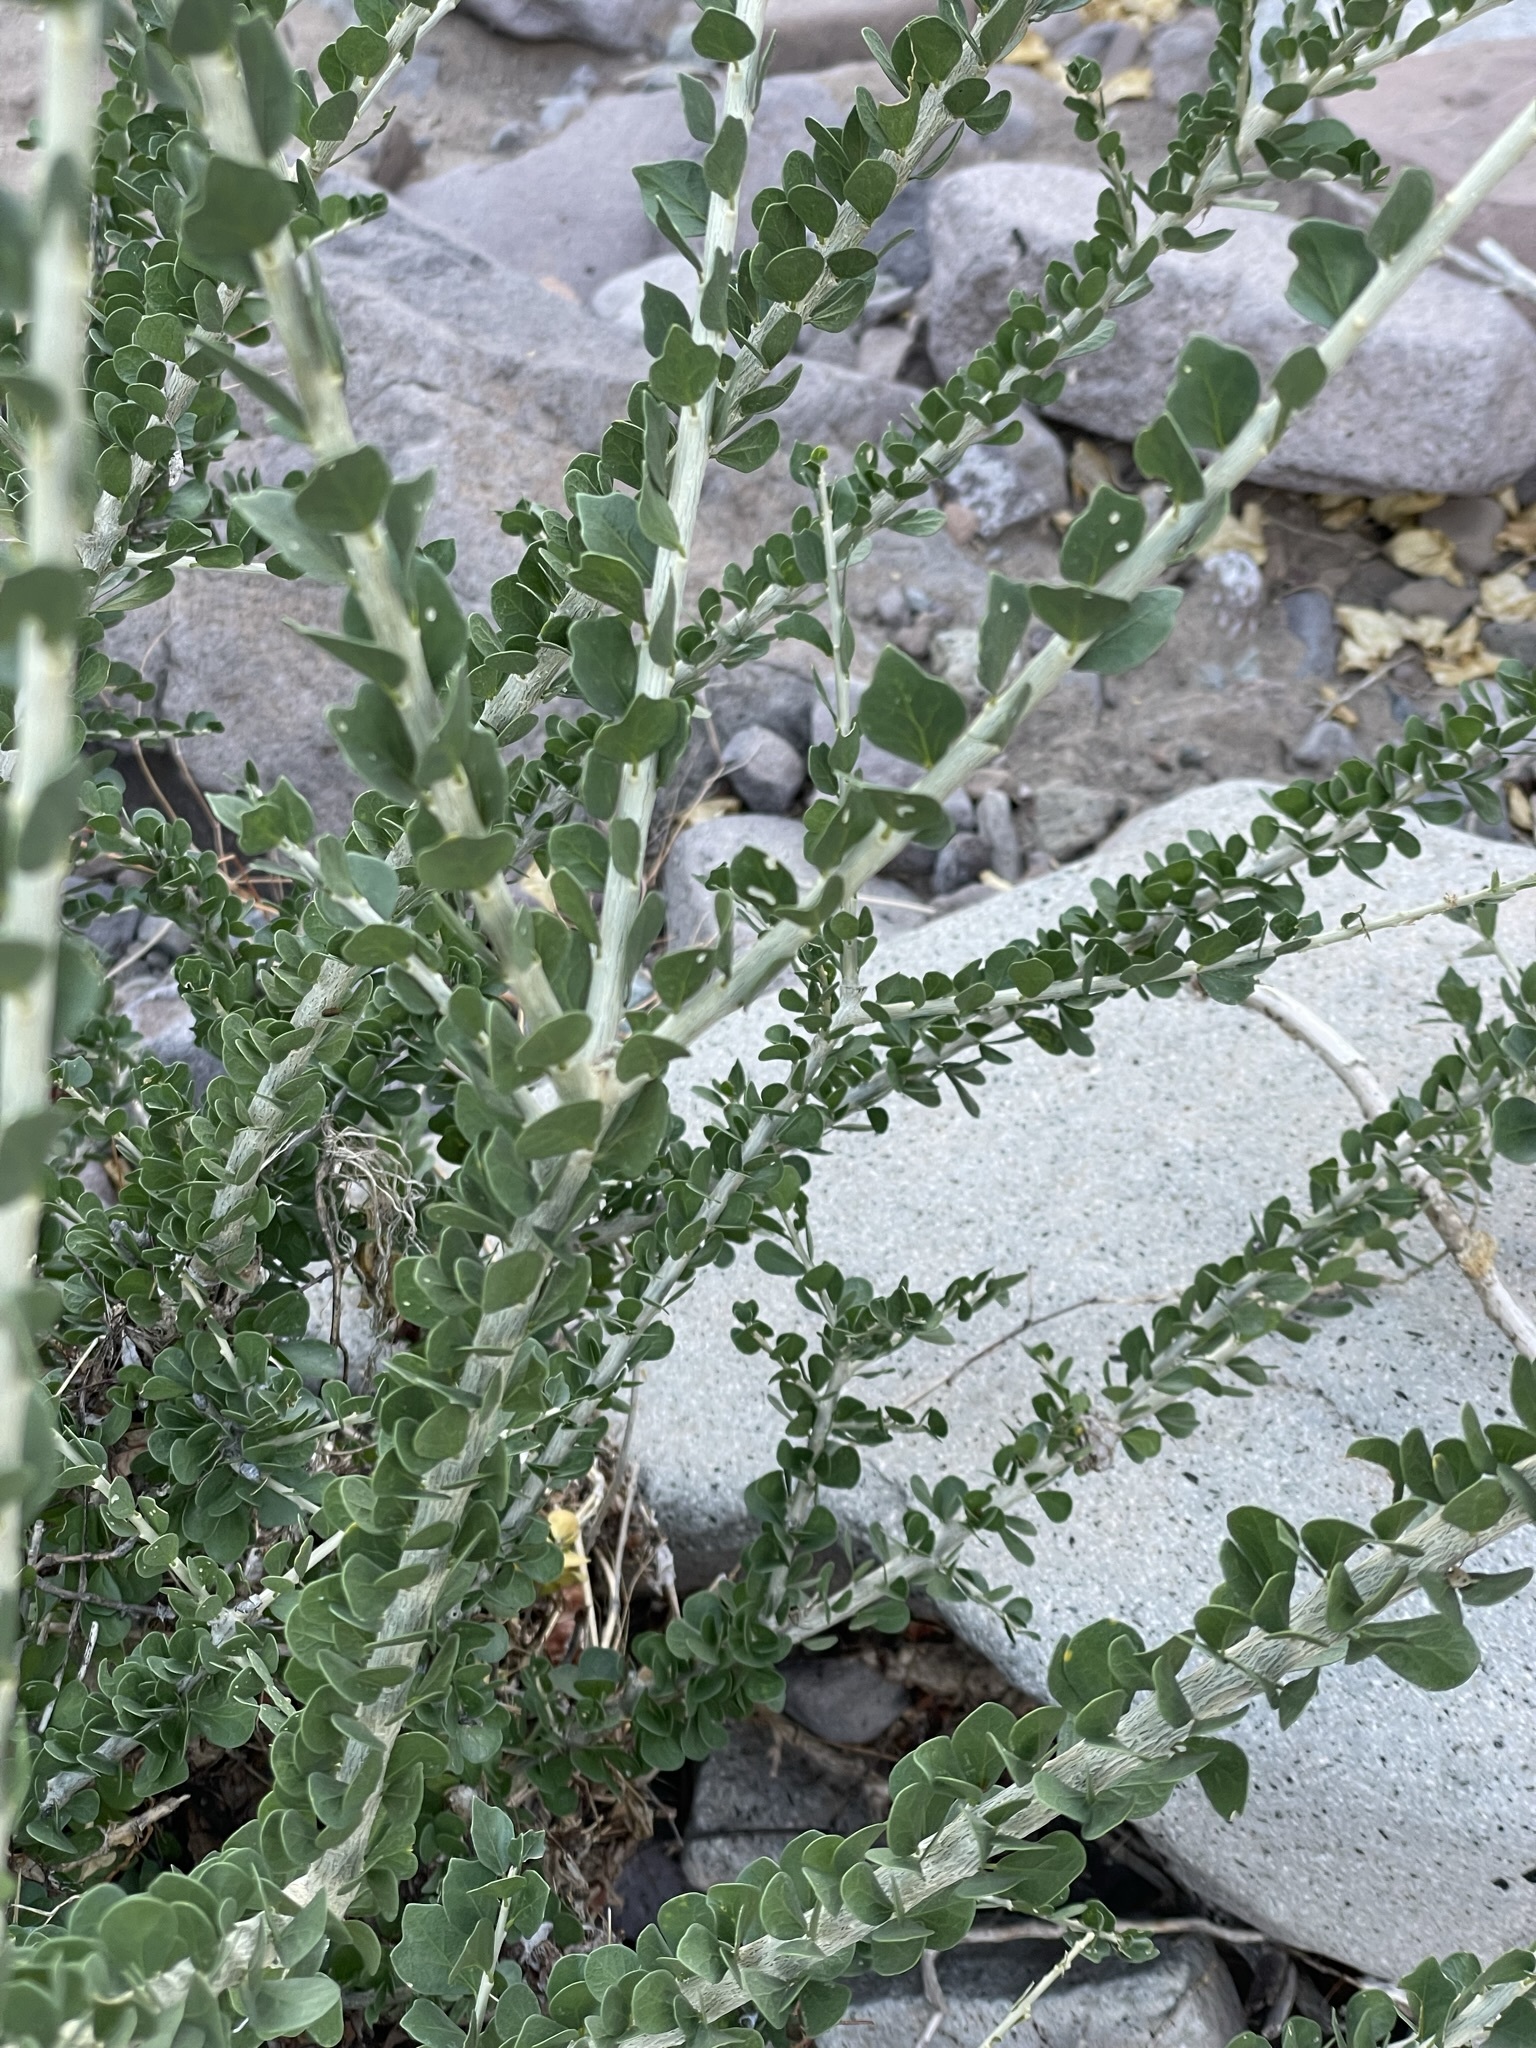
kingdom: Plantae
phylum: Tracheophyta
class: Magnoliopsida
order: Malpighiales
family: Euphorbiaceae
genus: Adelia
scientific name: Adelia brandegeei
